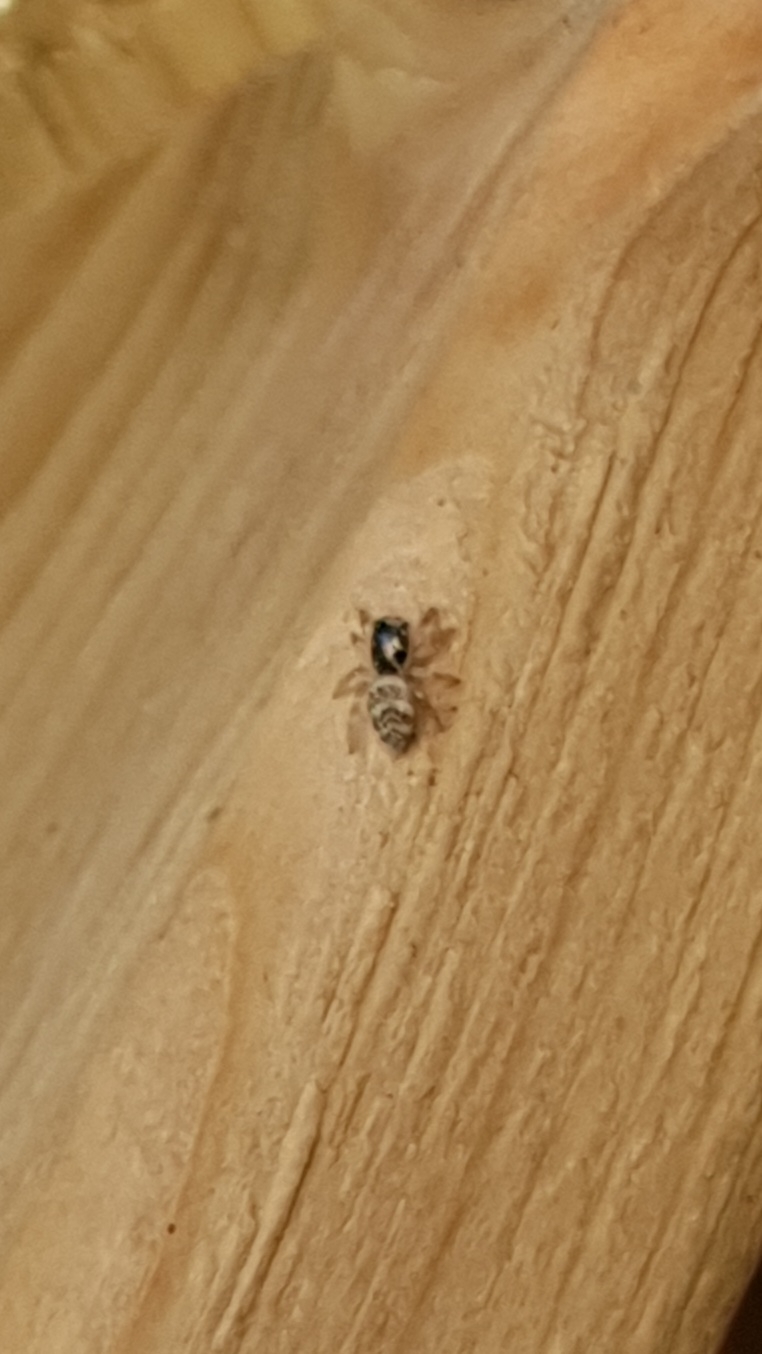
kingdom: Animalia
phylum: Arthropoda
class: Arachnida
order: Araneae
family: Salticidae
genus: Salticus
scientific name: Salticus scenicus
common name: Zebra jumper
